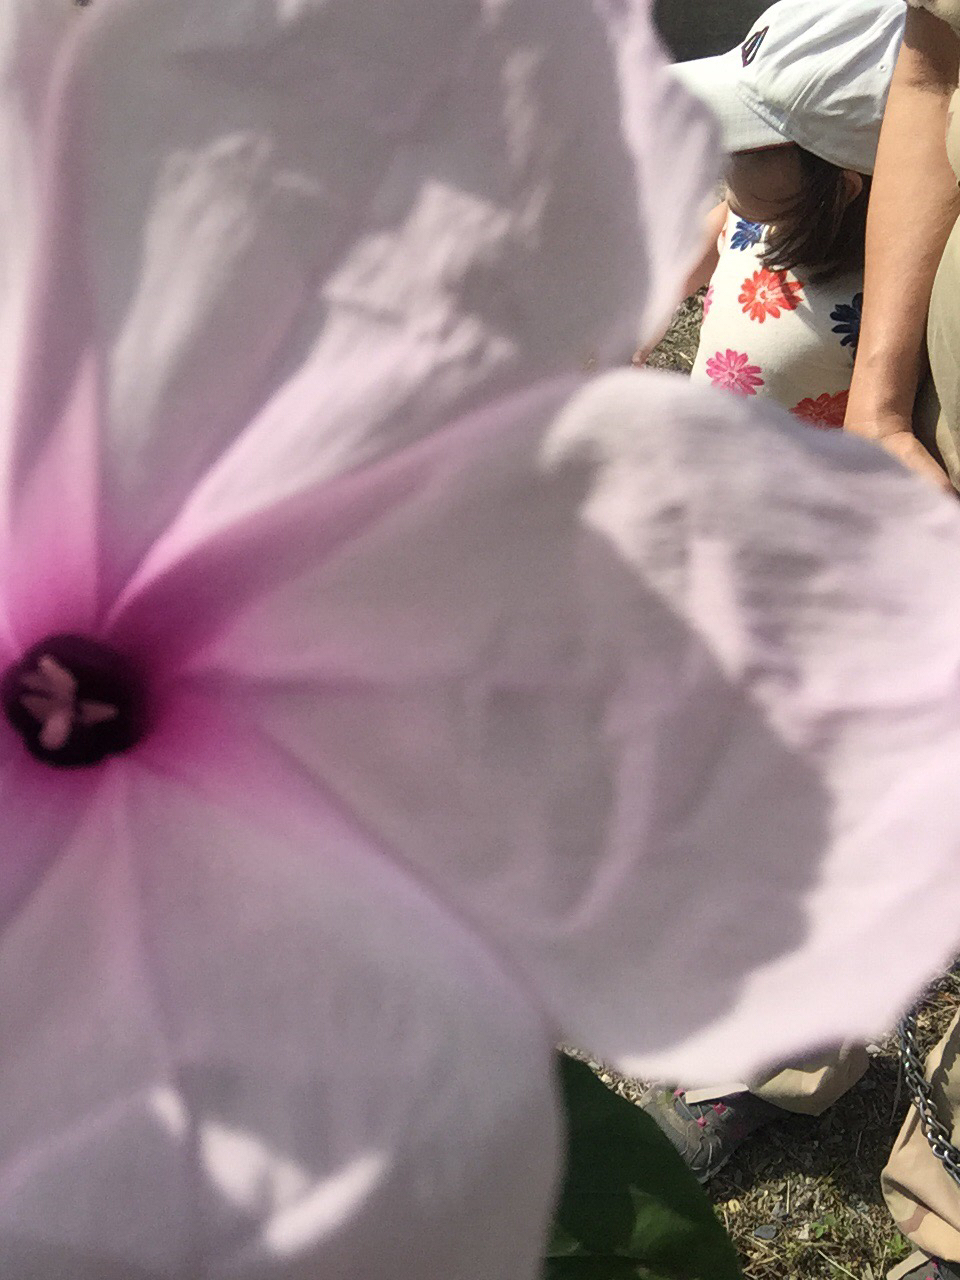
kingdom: Plantae
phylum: Tracheophyta
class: Magnoliopsida
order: Solanales
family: Convolvulaceae
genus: Ipomoea
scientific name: Ipomoea carnea
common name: Morning-glory
